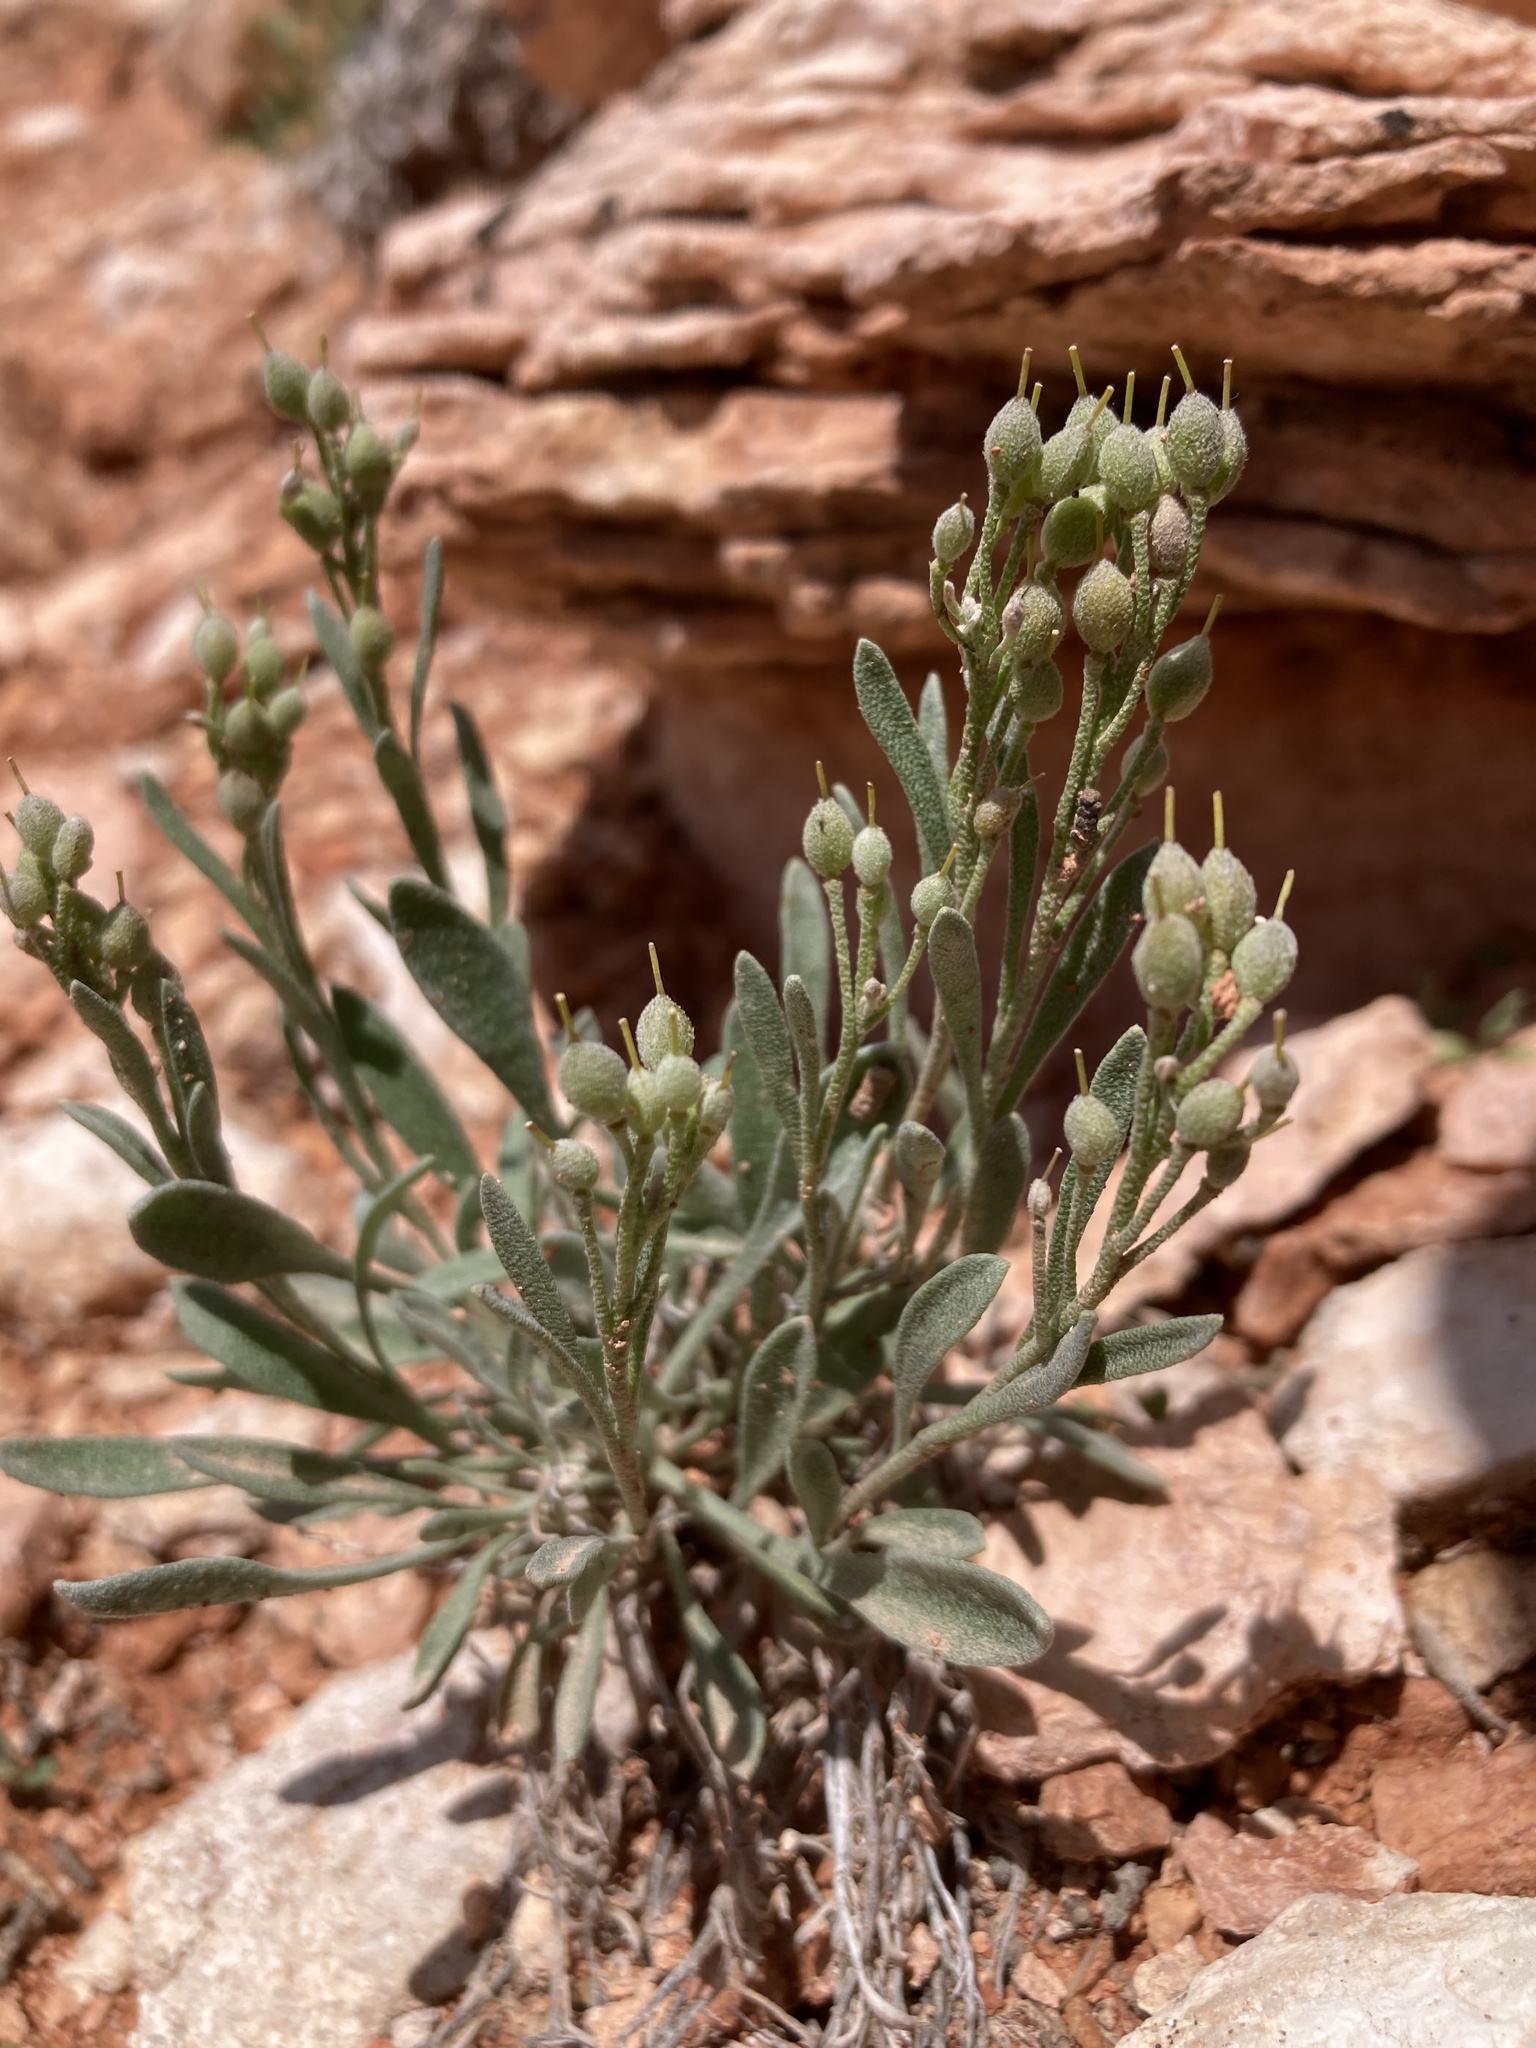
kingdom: Plantae
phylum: Tracheophyta
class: Magnoliopsida
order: Brassicales
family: Brassicaceae
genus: Physaria
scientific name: Physaria pachyphylla
